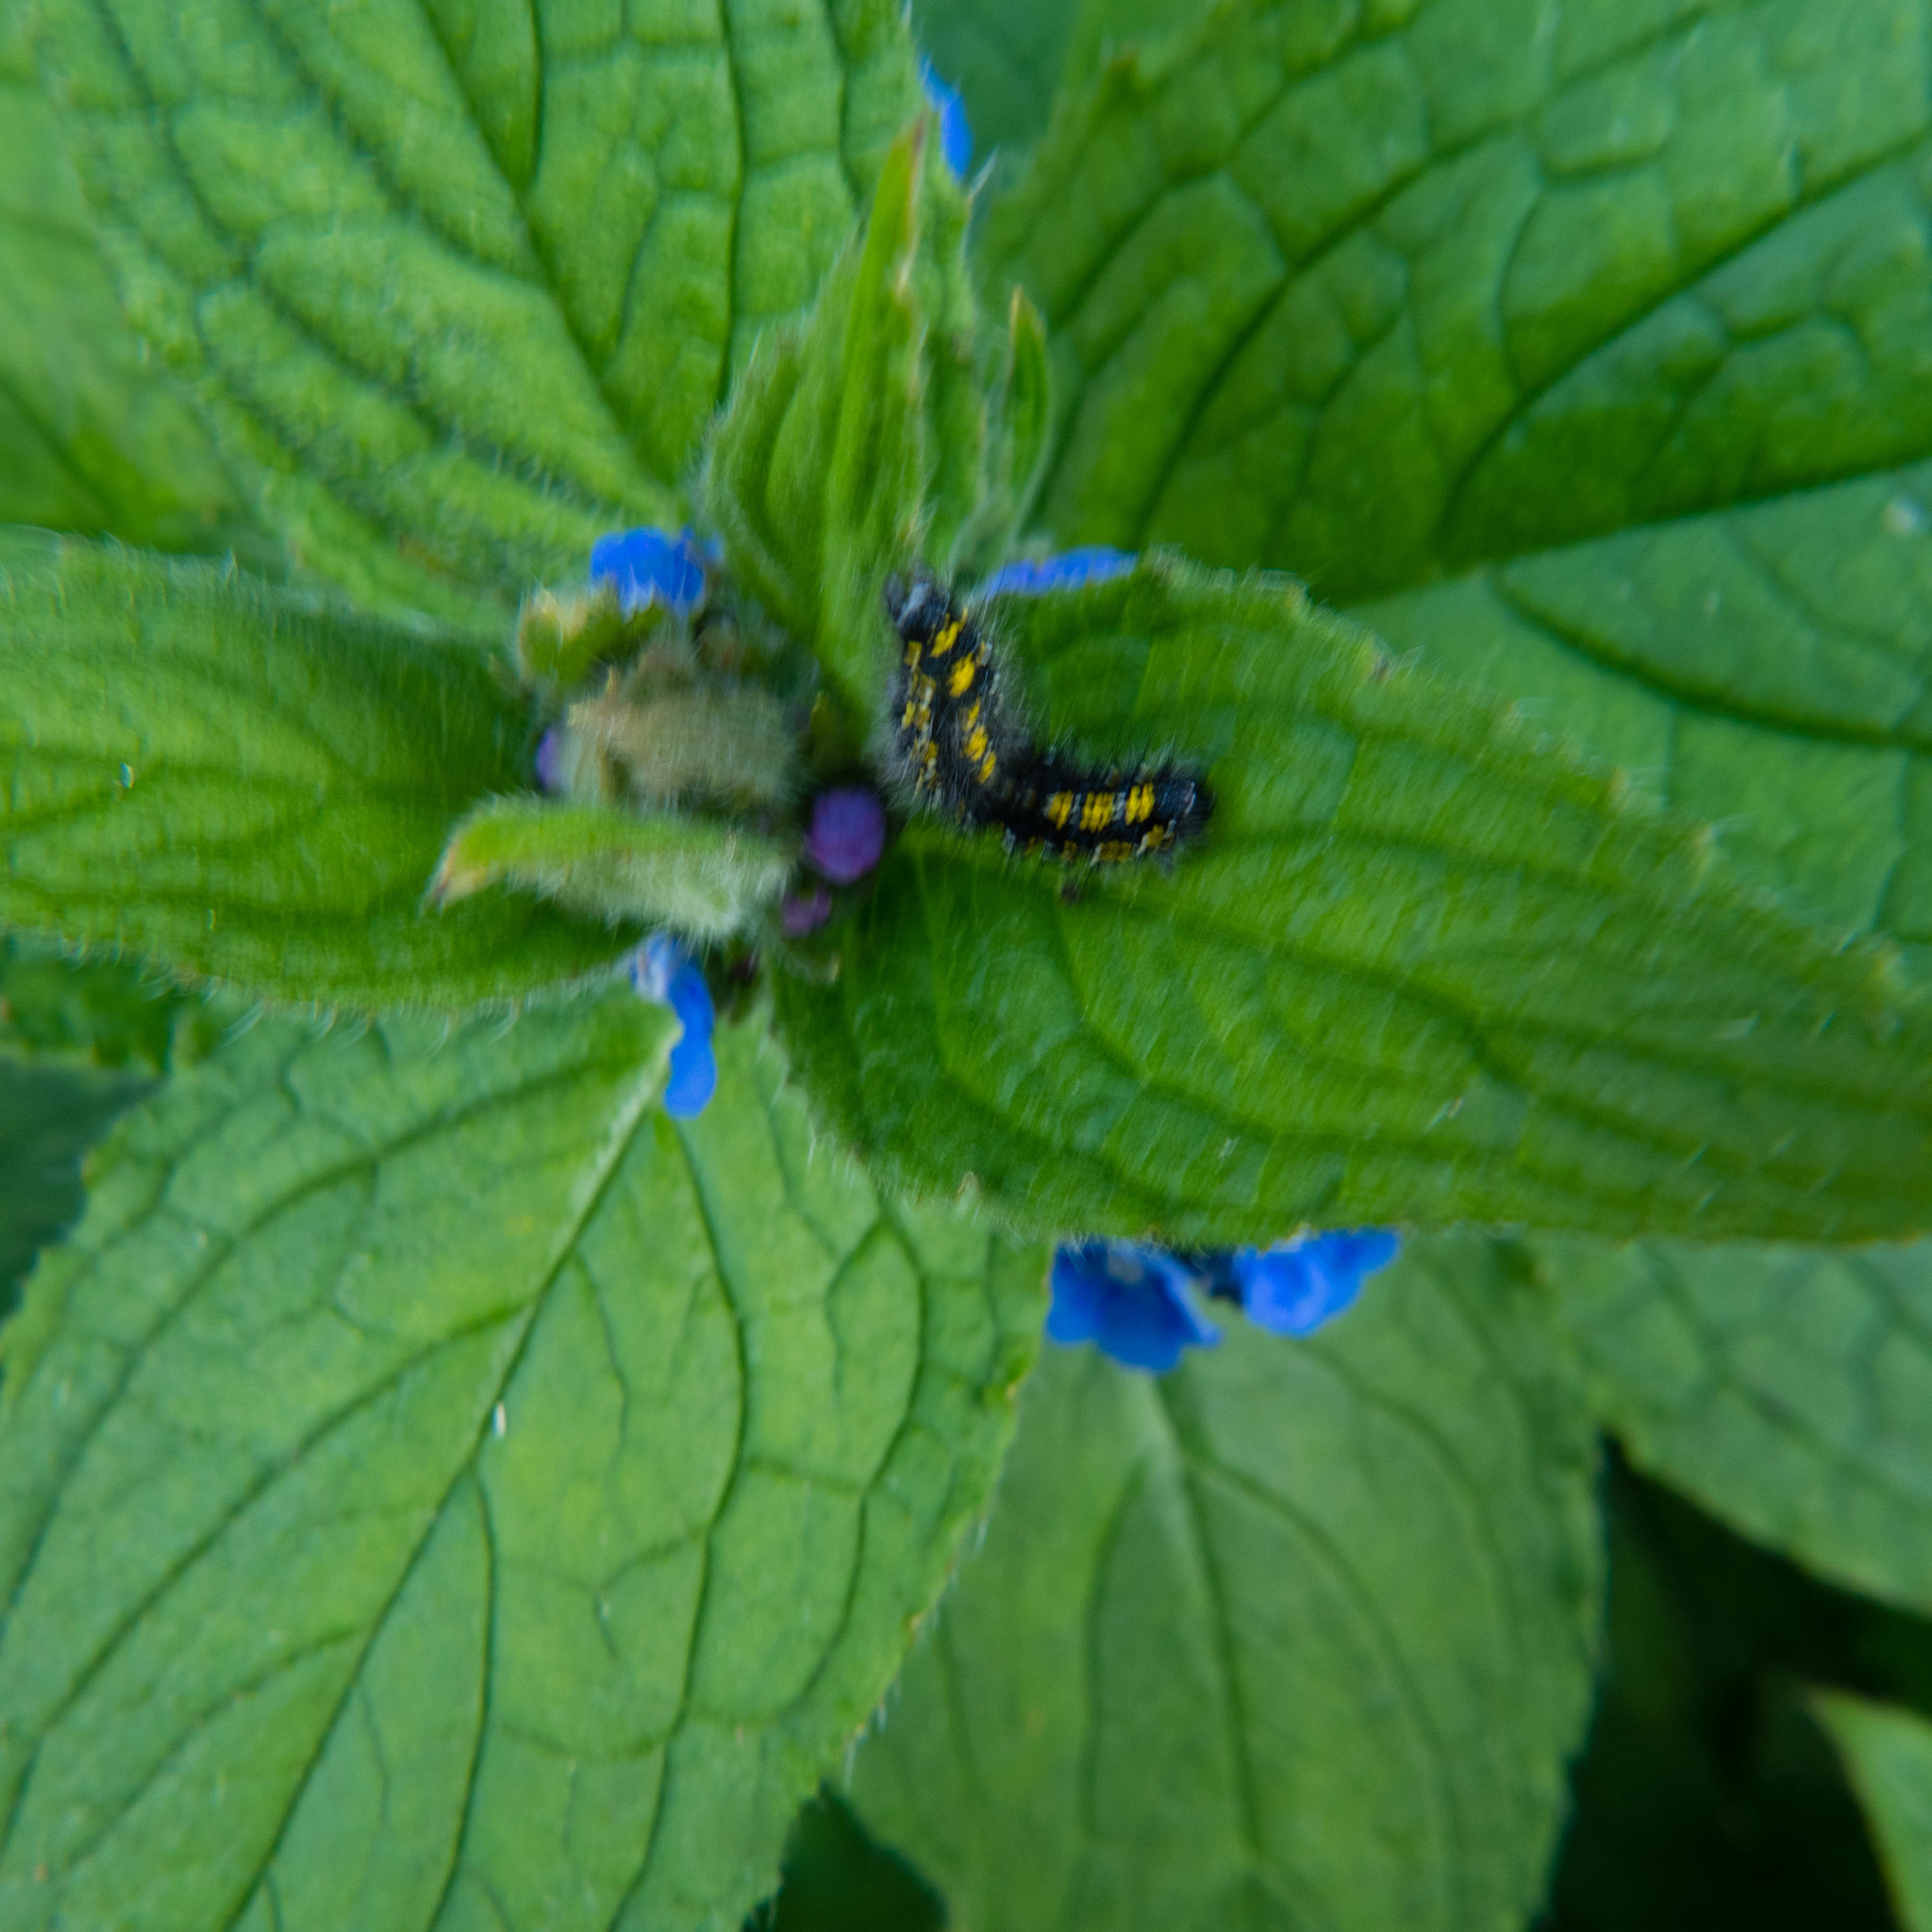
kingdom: Animalia
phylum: Arthropoda
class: Insecta
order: Lepidoptera
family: Erebidae
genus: Callimorpha
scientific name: Callimorpha dominula
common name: Scarlet tiger
